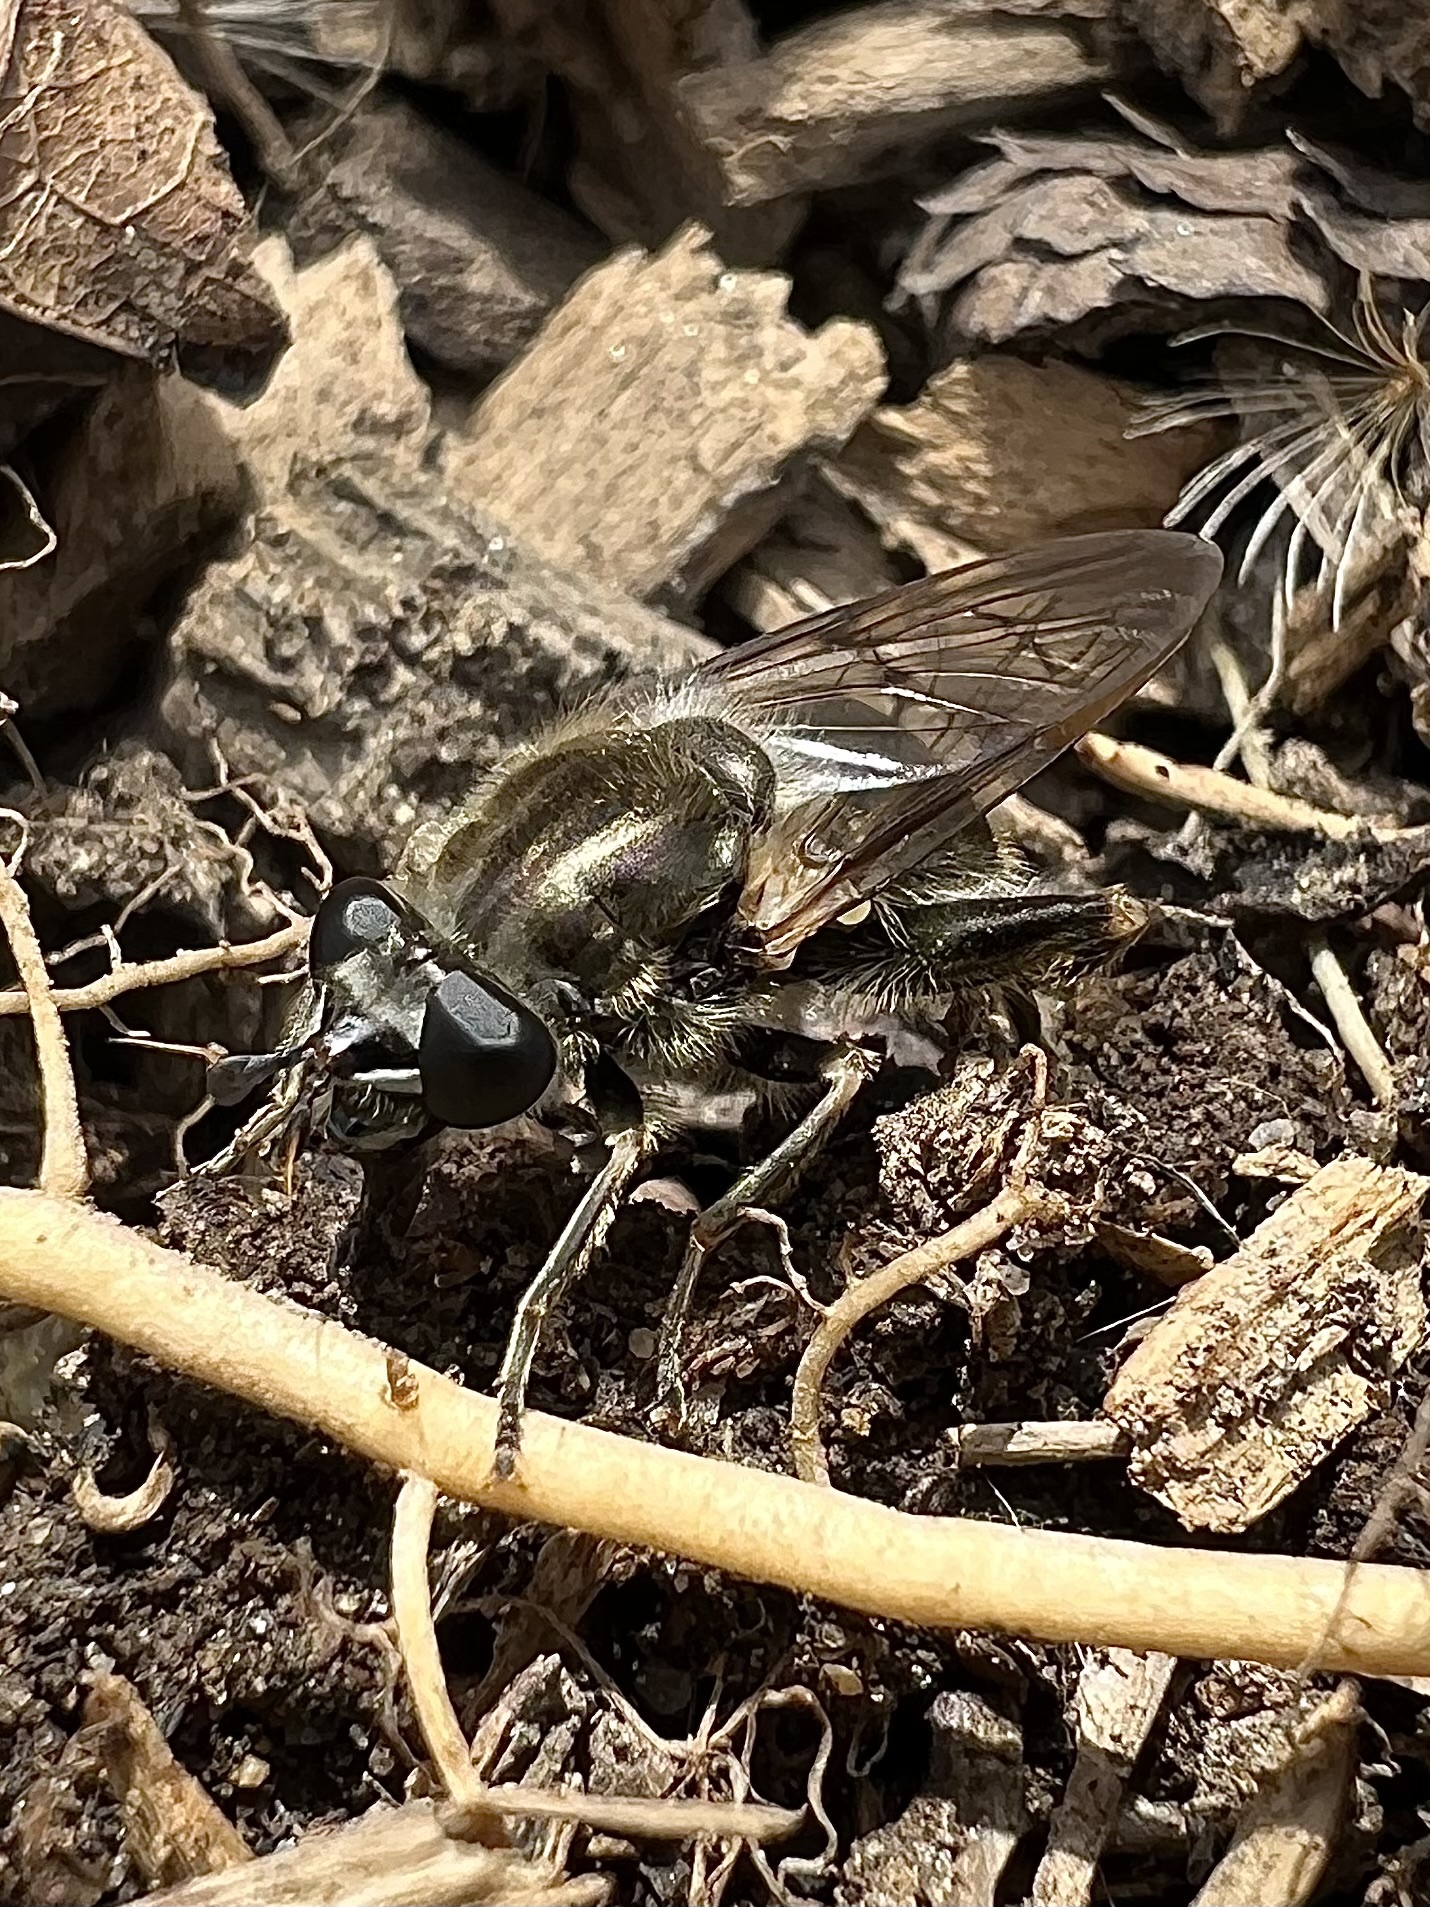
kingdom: Animalia
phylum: Arthropoda
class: Insecta
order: Diptera
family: Syrphidae
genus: Brachypalpus
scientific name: Brachypalpus oarus
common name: Eastern catkin fly
